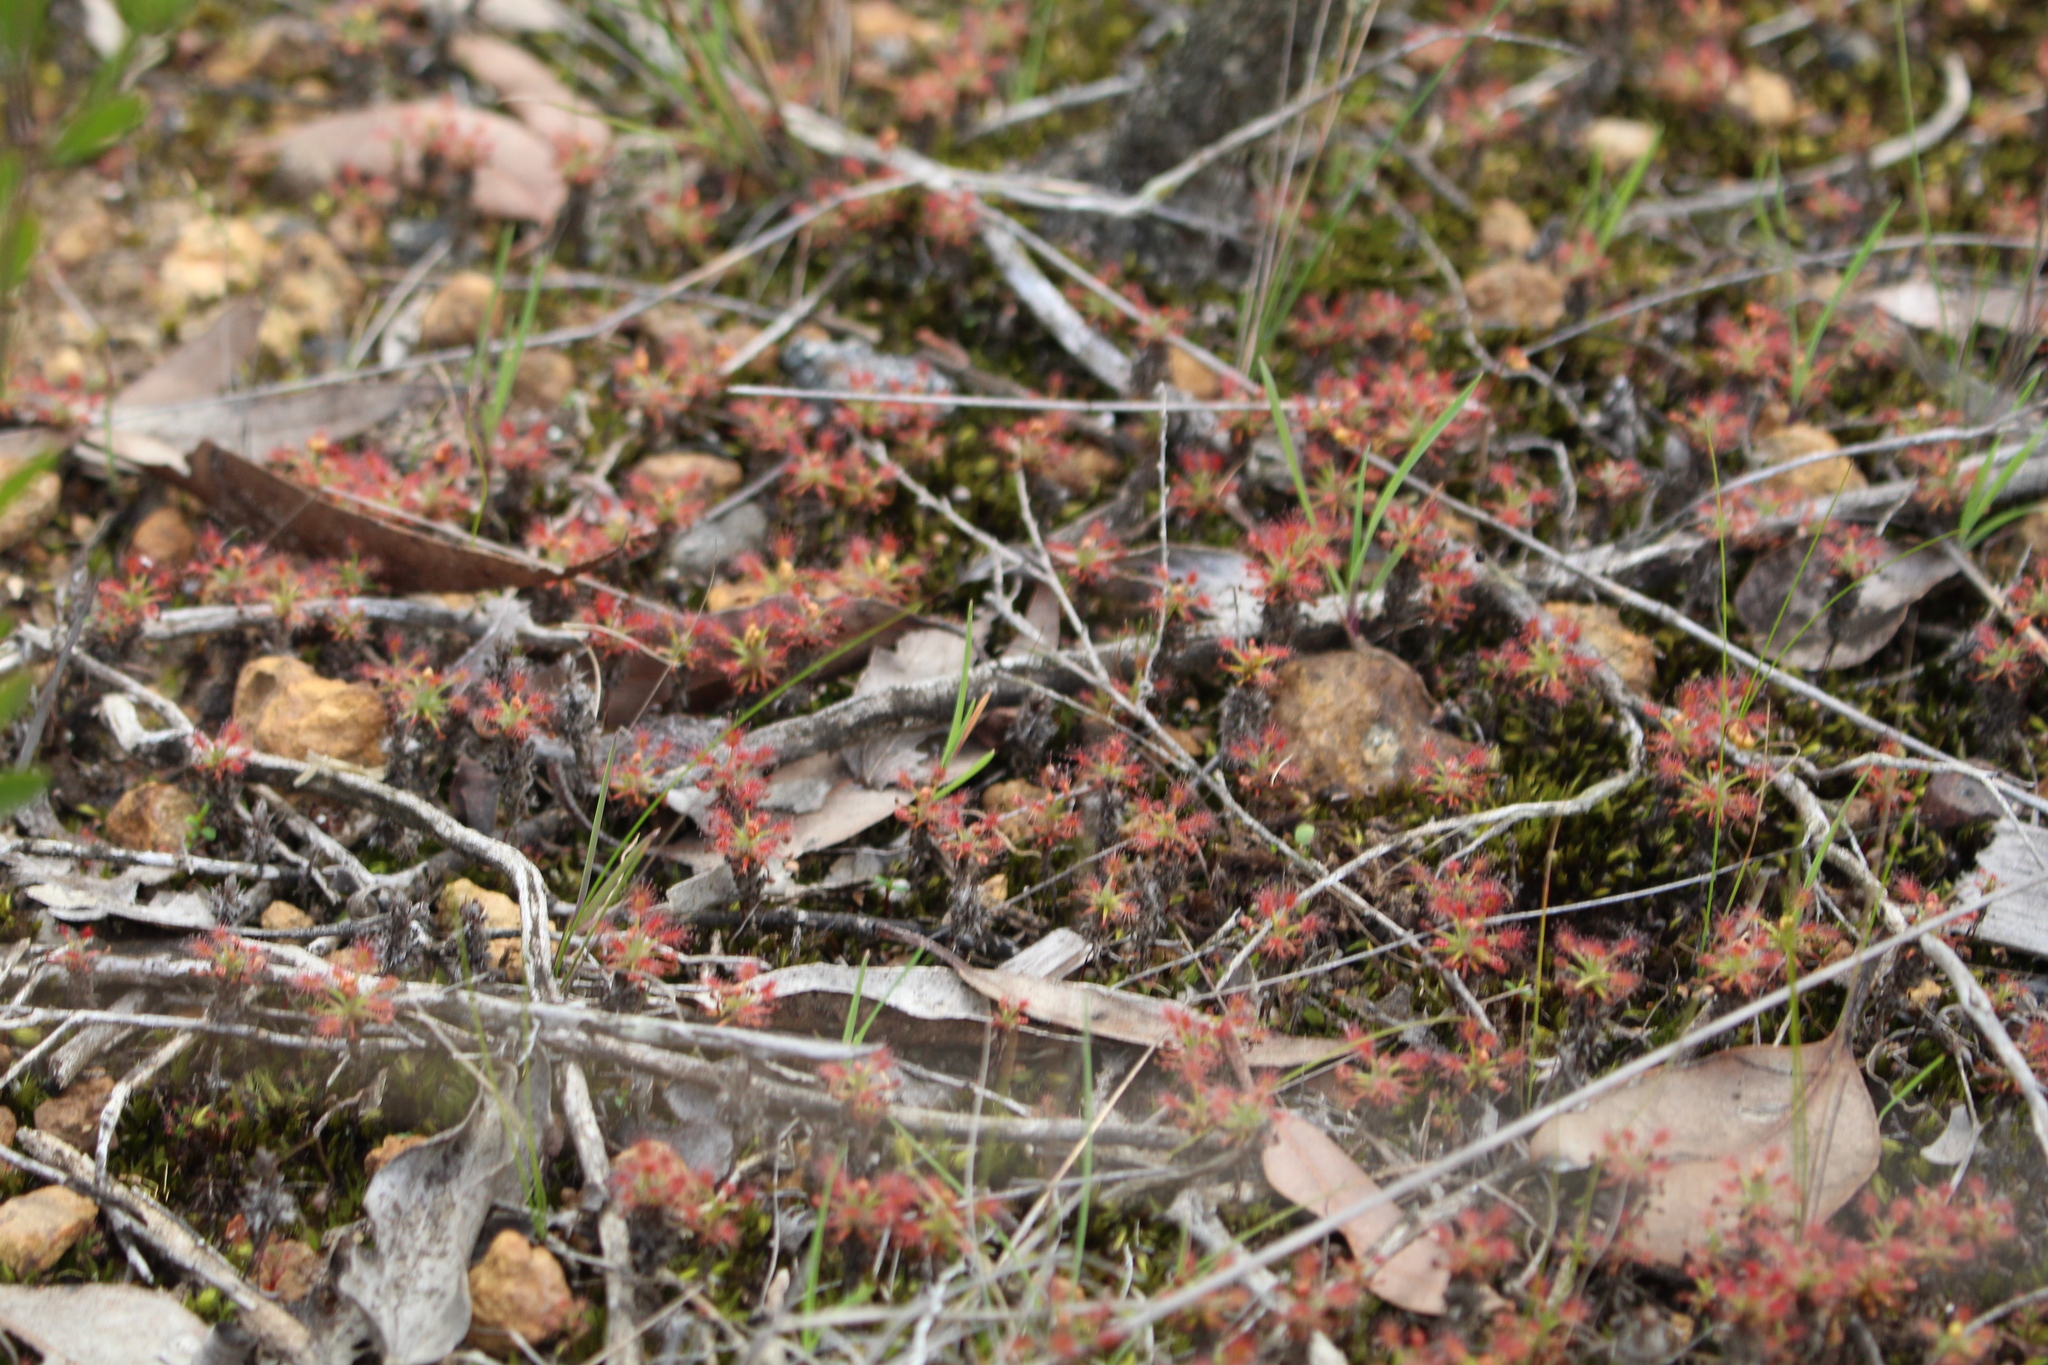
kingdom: Plantae
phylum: Tracheophyta
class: Magnoliopsida
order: Caryophyllales
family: Droseraceae
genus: Drosera
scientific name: Drosera verrucata
